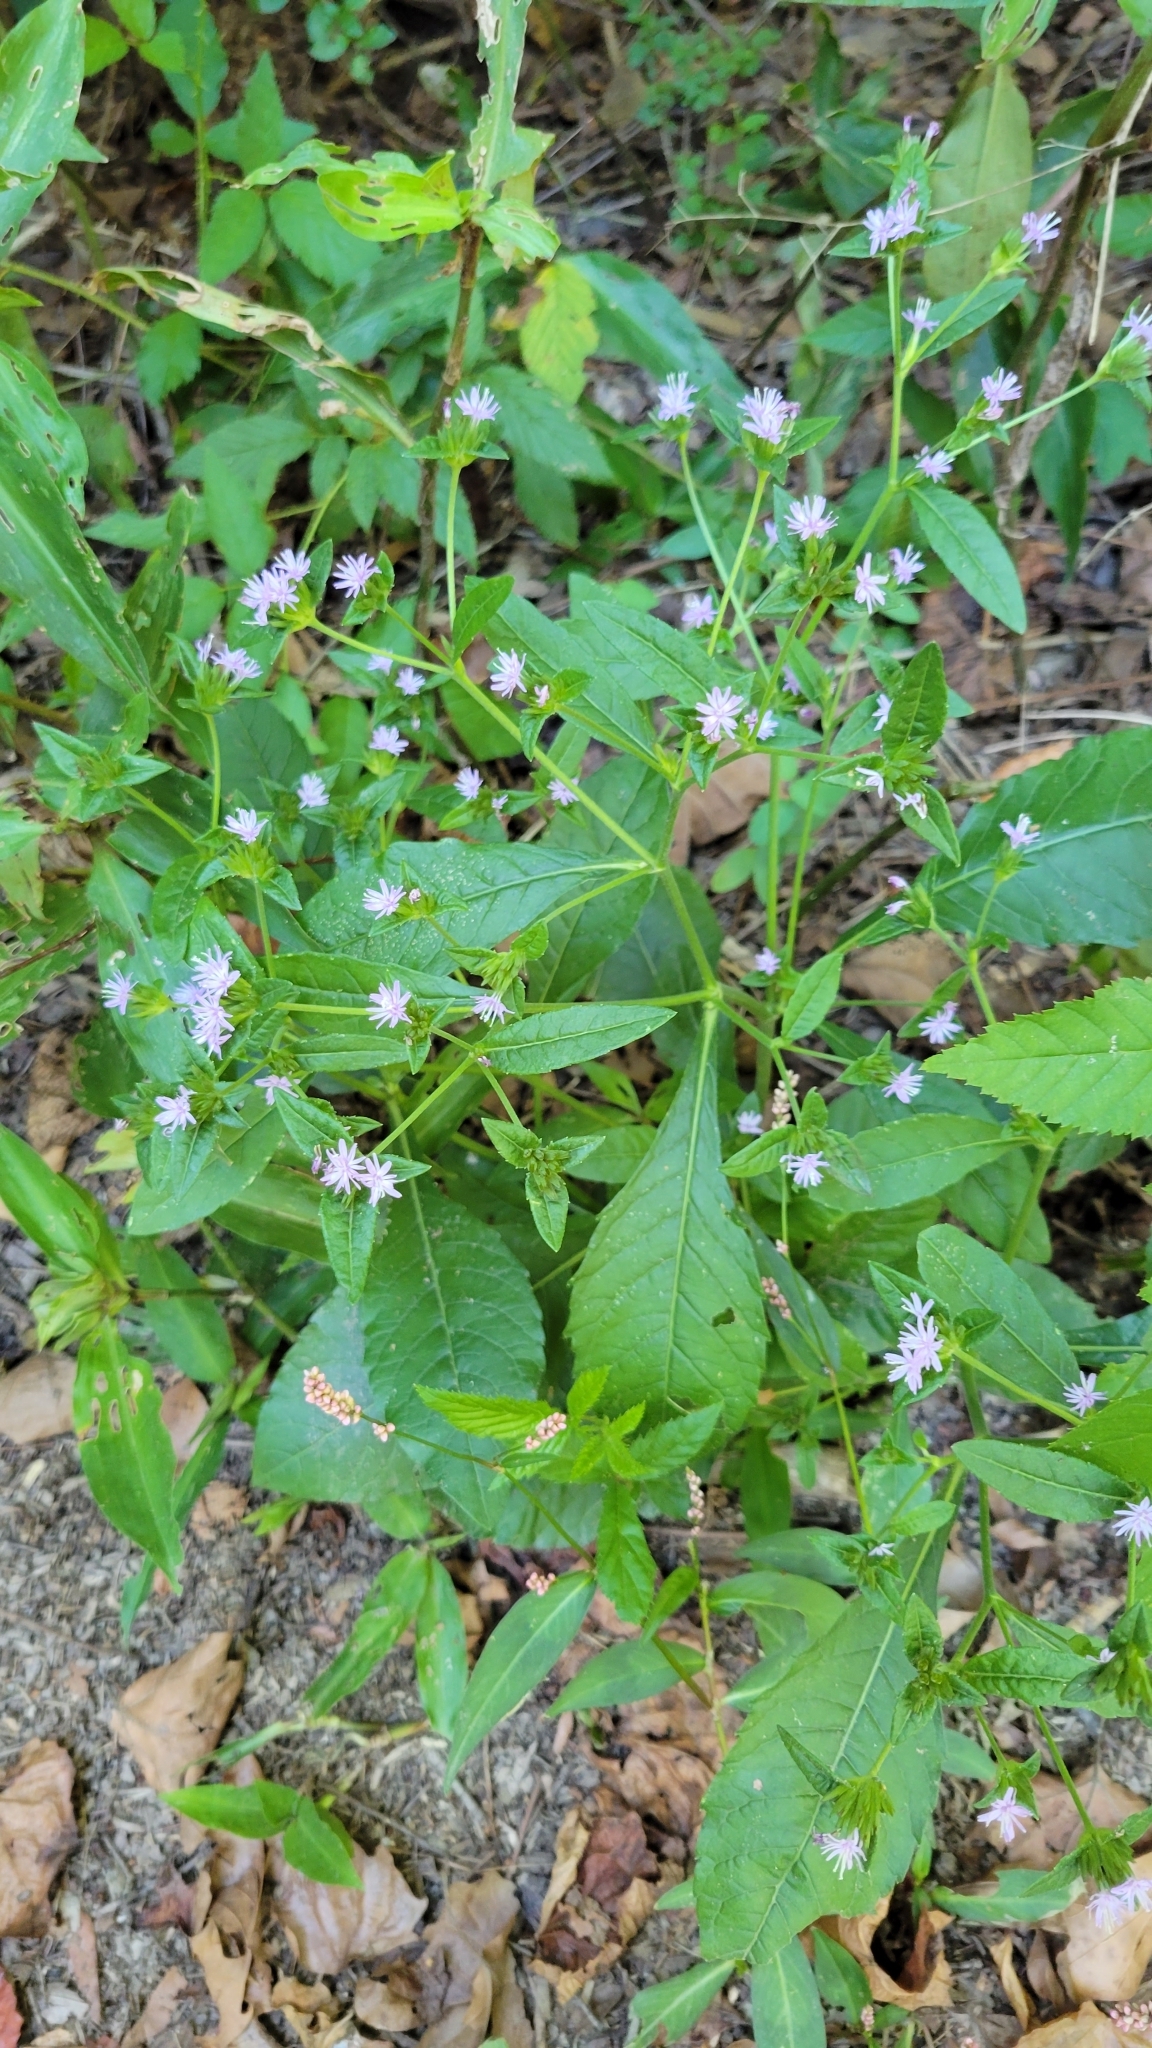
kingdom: Plantae
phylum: Tracheophyta
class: Magnoliopsida
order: Asterales
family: Asteraceae
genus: Elephantopus
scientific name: Elephantopus carolinianus
